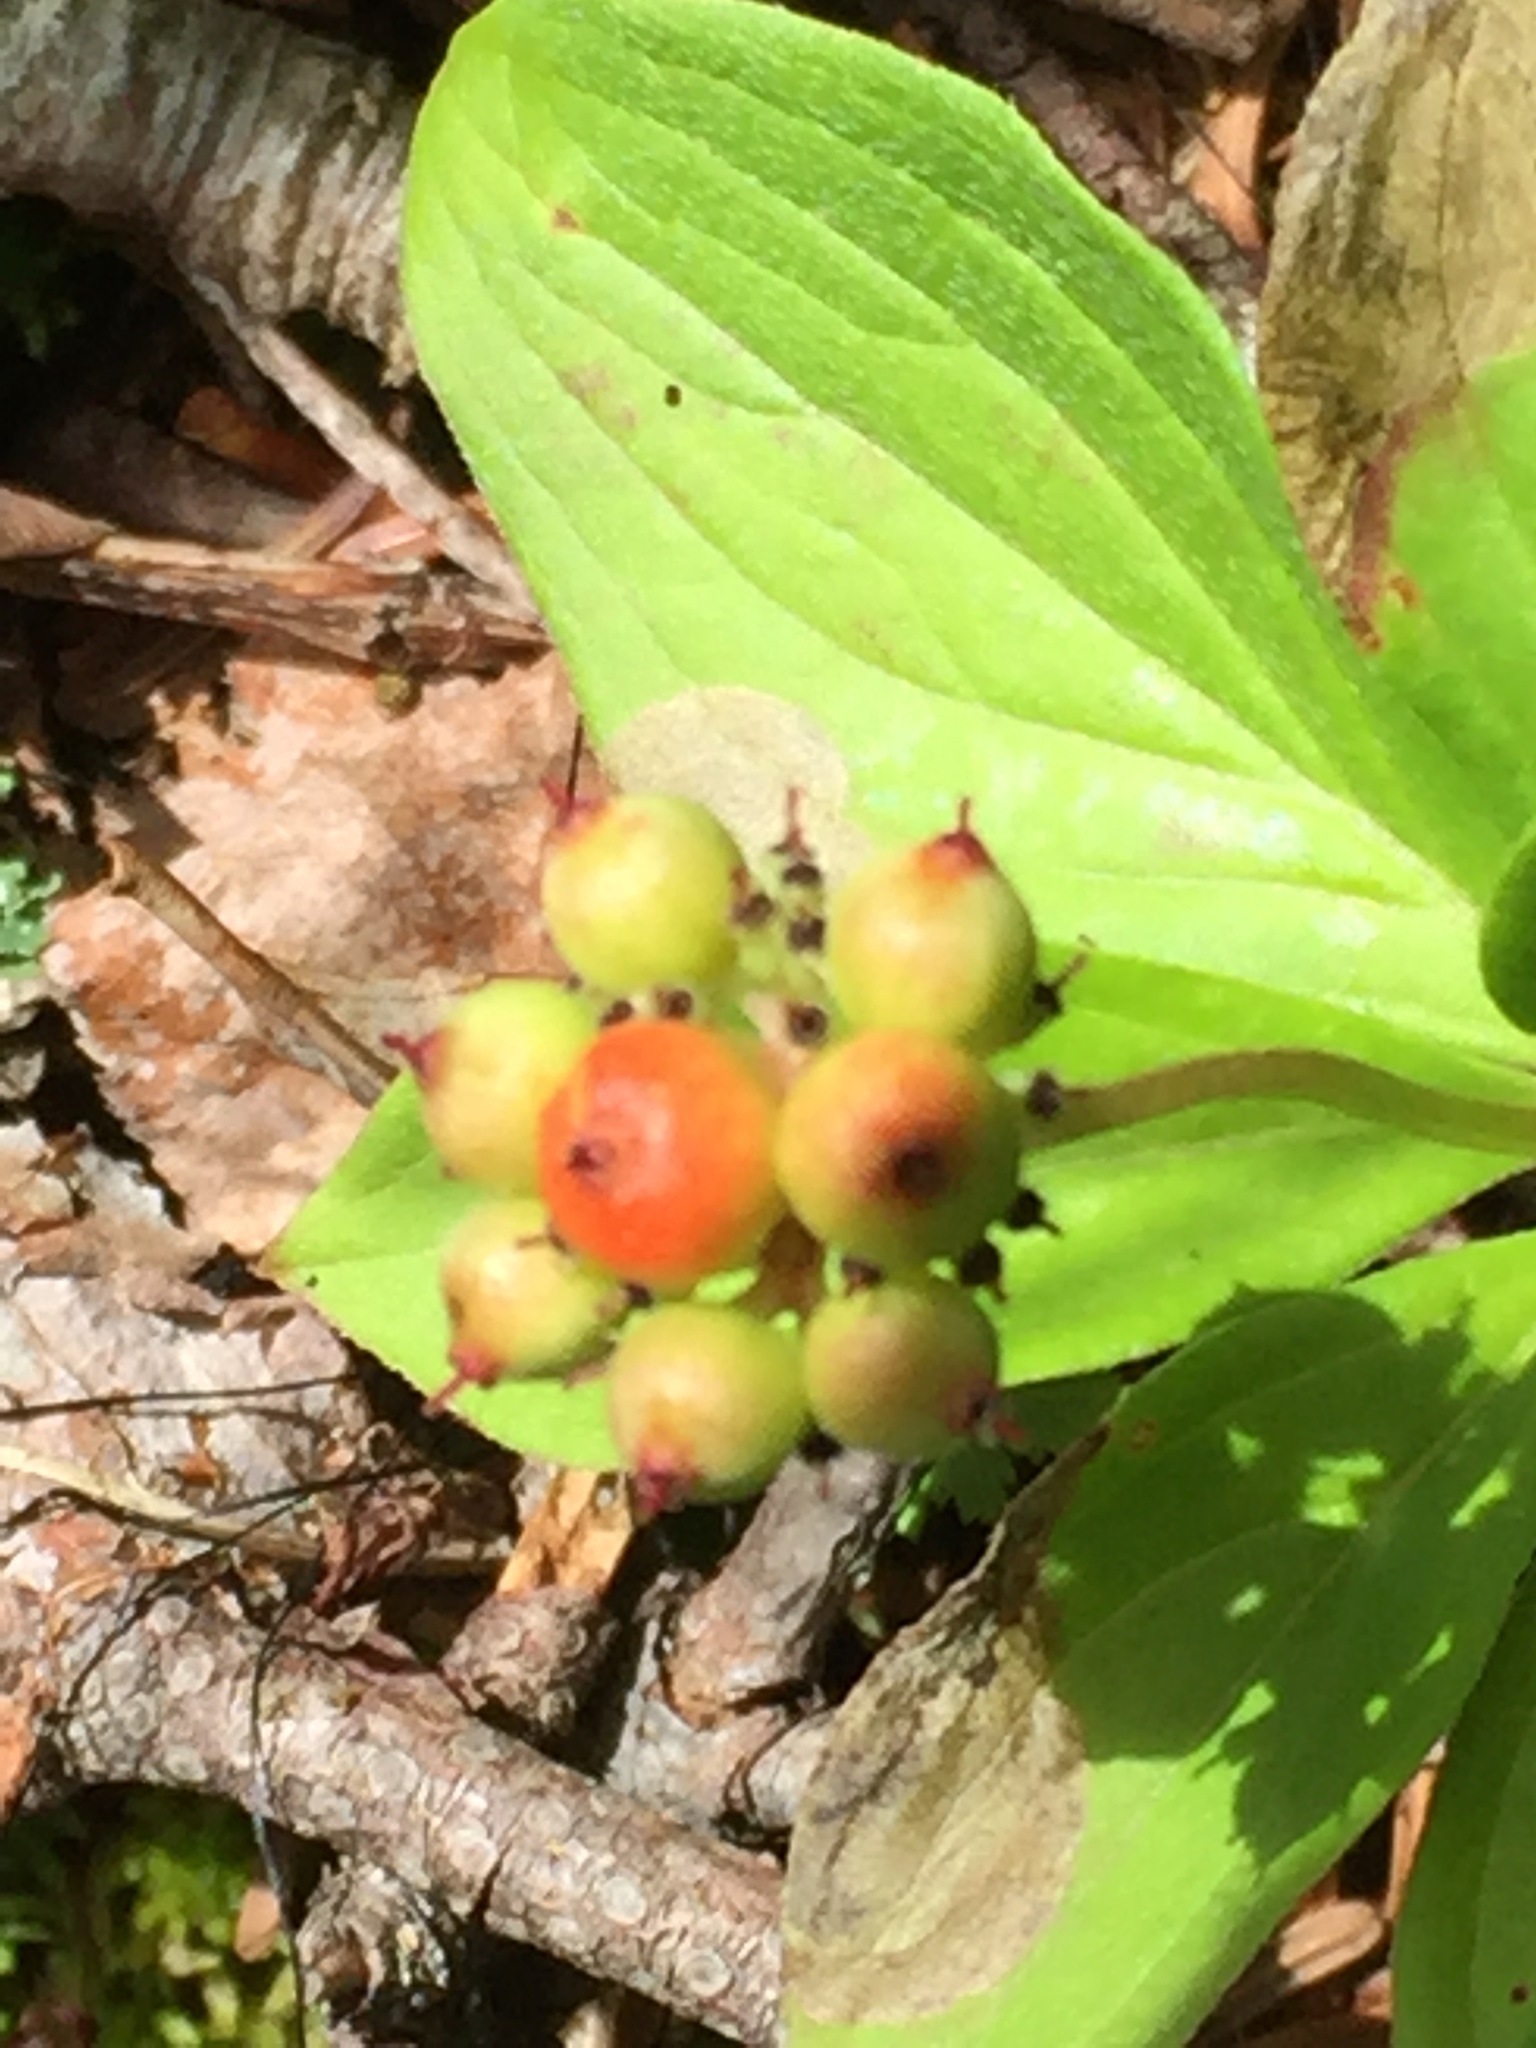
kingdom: Plantae
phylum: Tracheophyta
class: Magnoliopsida
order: Cornales
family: Cornaceae
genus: Cornus
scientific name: Cornus canadensis
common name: Creeping dogwood
